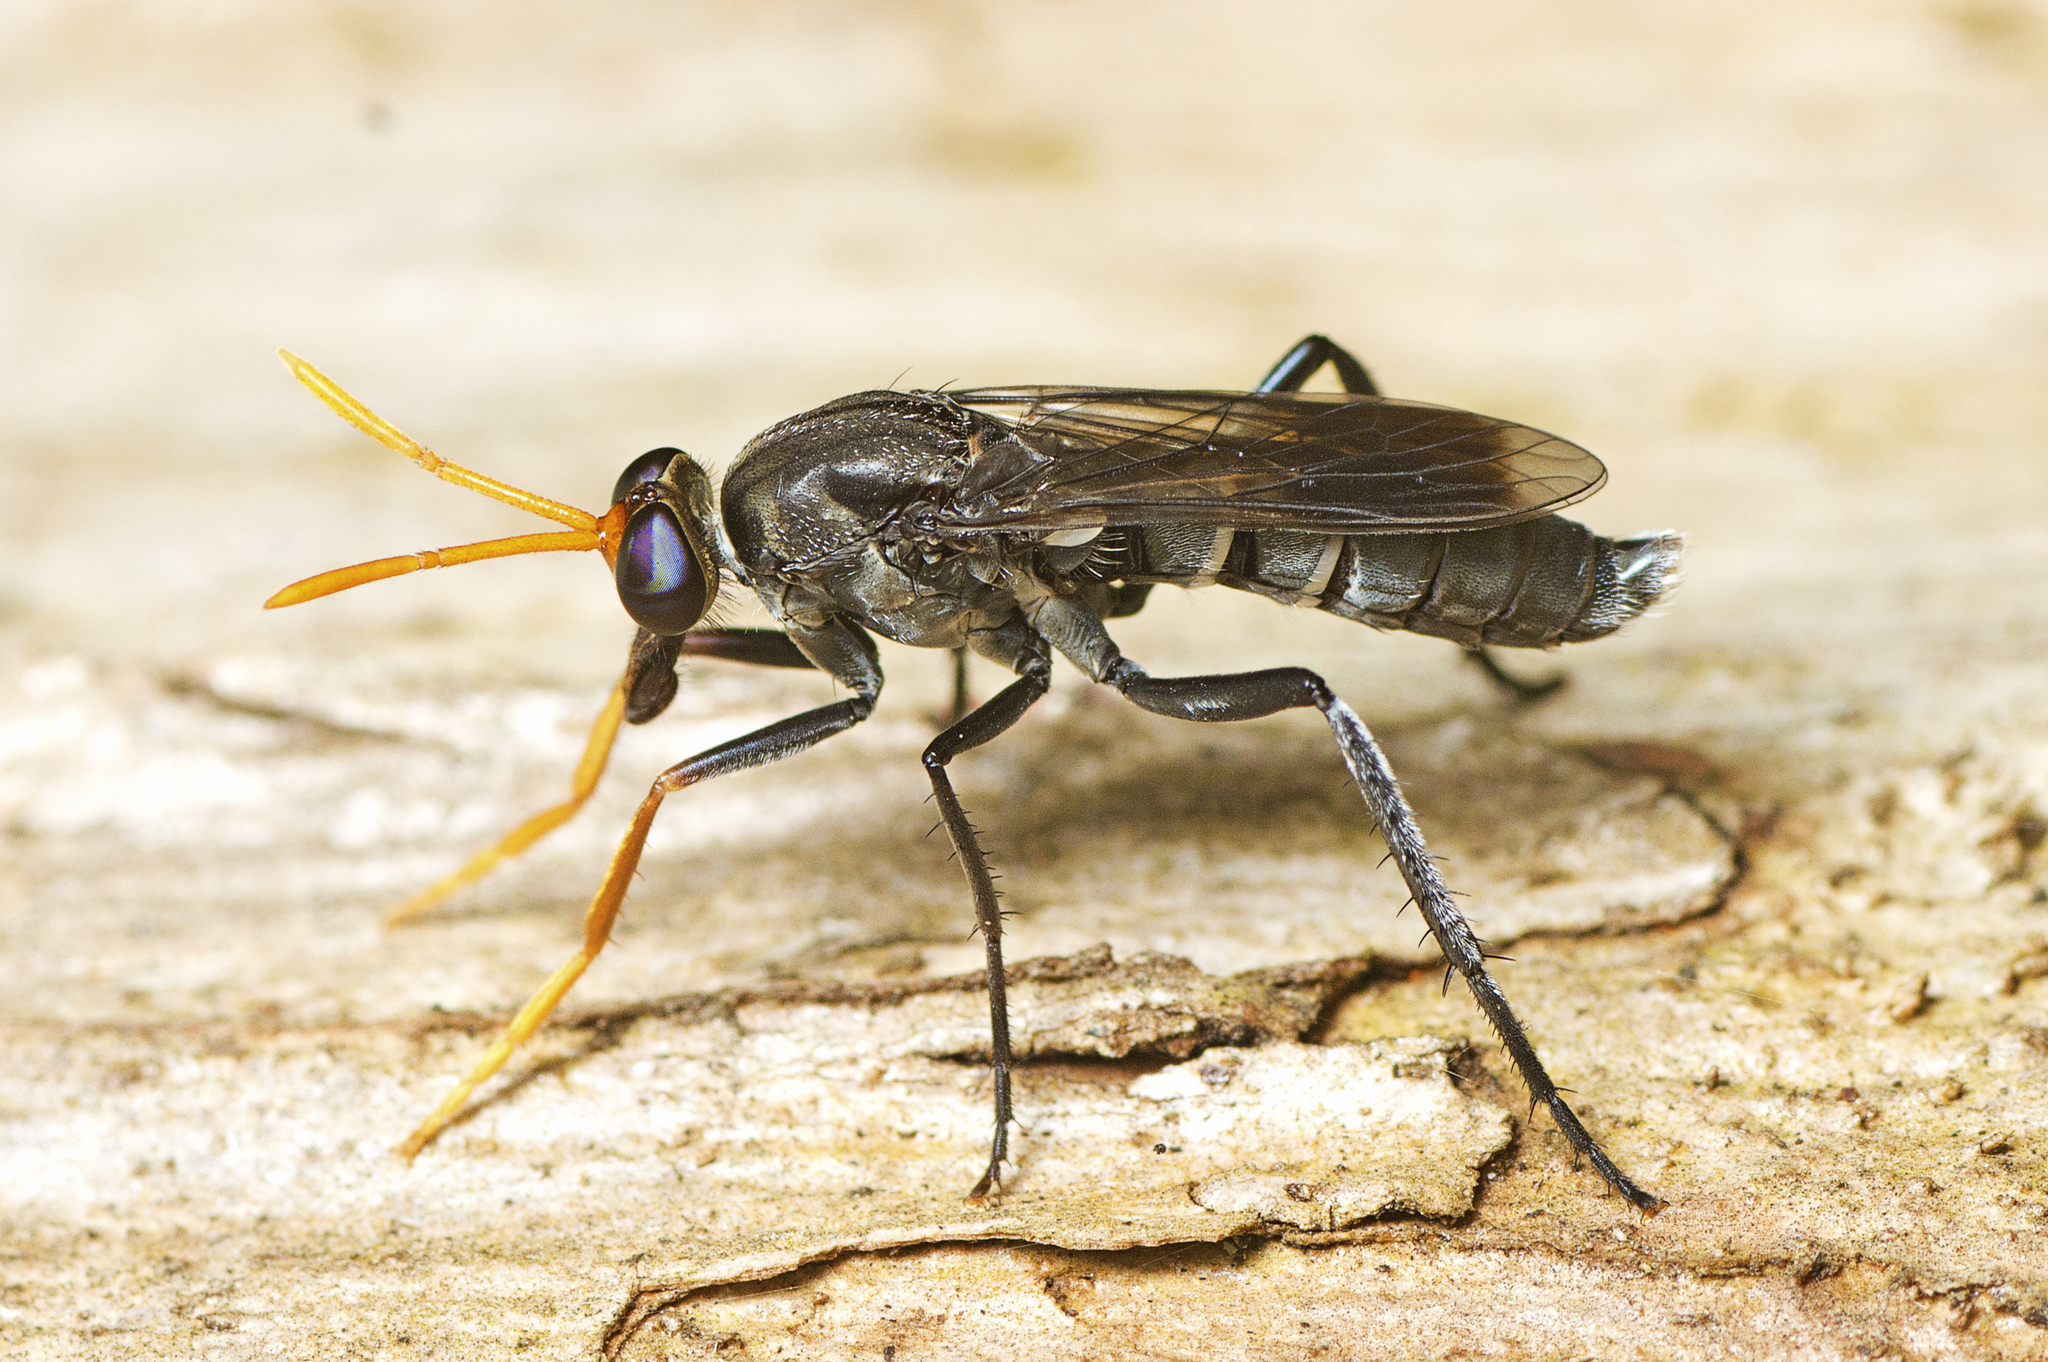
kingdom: Animalia
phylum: Arthropoda
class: Insecta
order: Diptera
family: Therevidae
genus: Phycus
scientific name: Phycus pallidicornis
